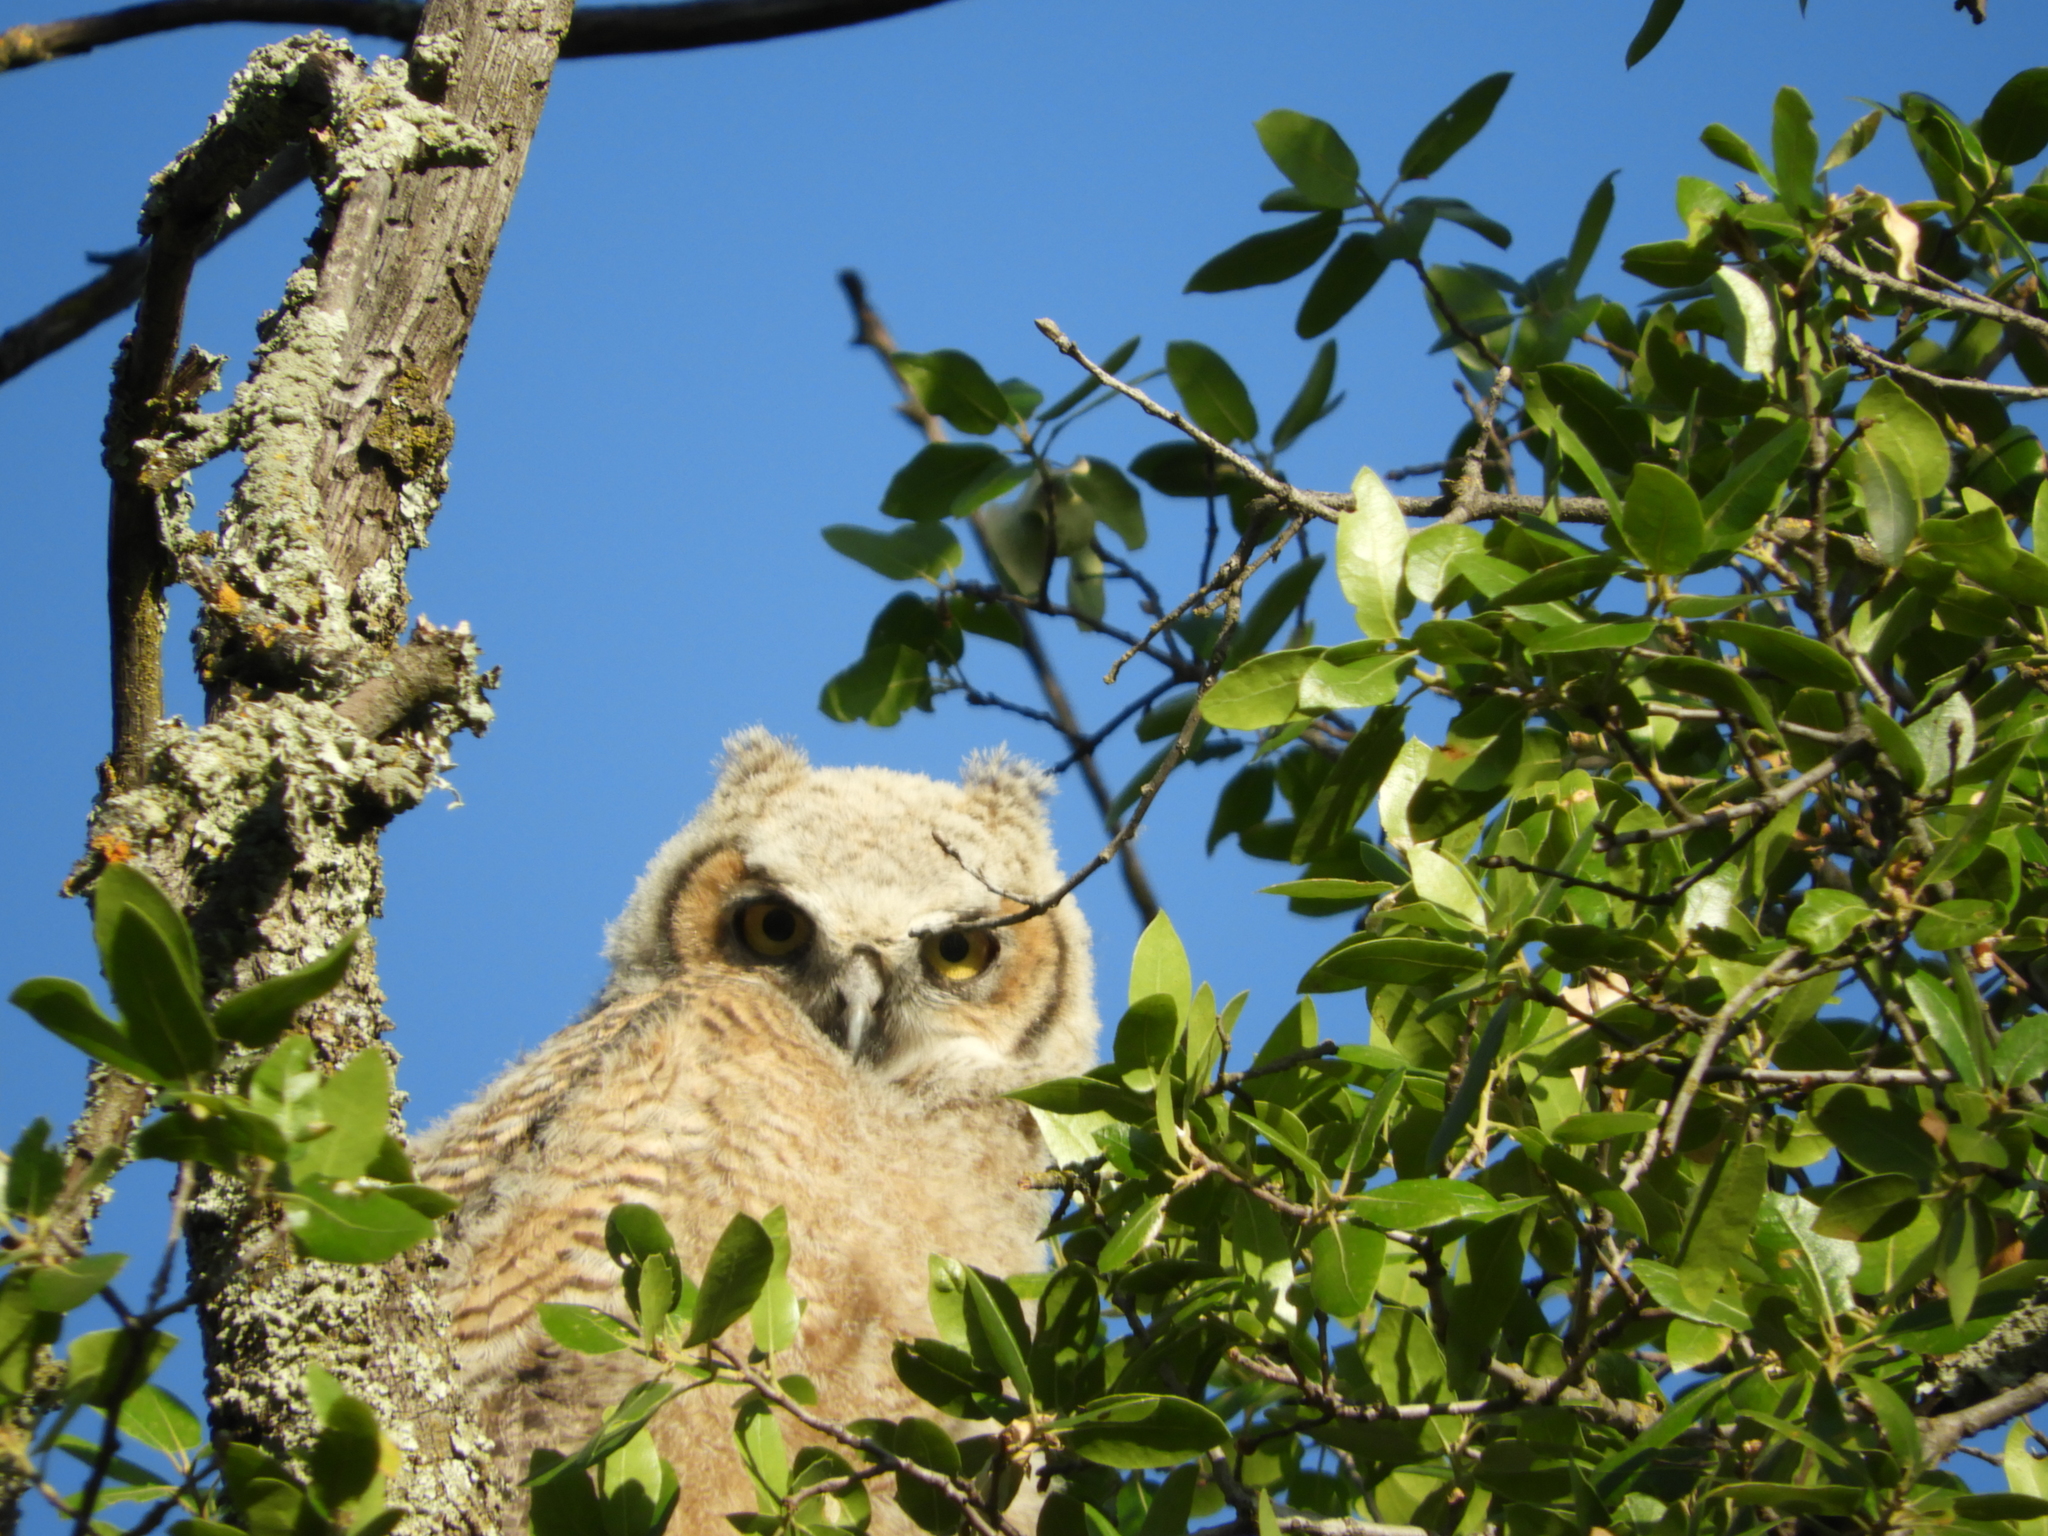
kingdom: Animalia
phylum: Chordata
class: Aves
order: Strigiformes
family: Strigidae
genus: Bubo
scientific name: Bubo virginianus
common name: Great horned owl
